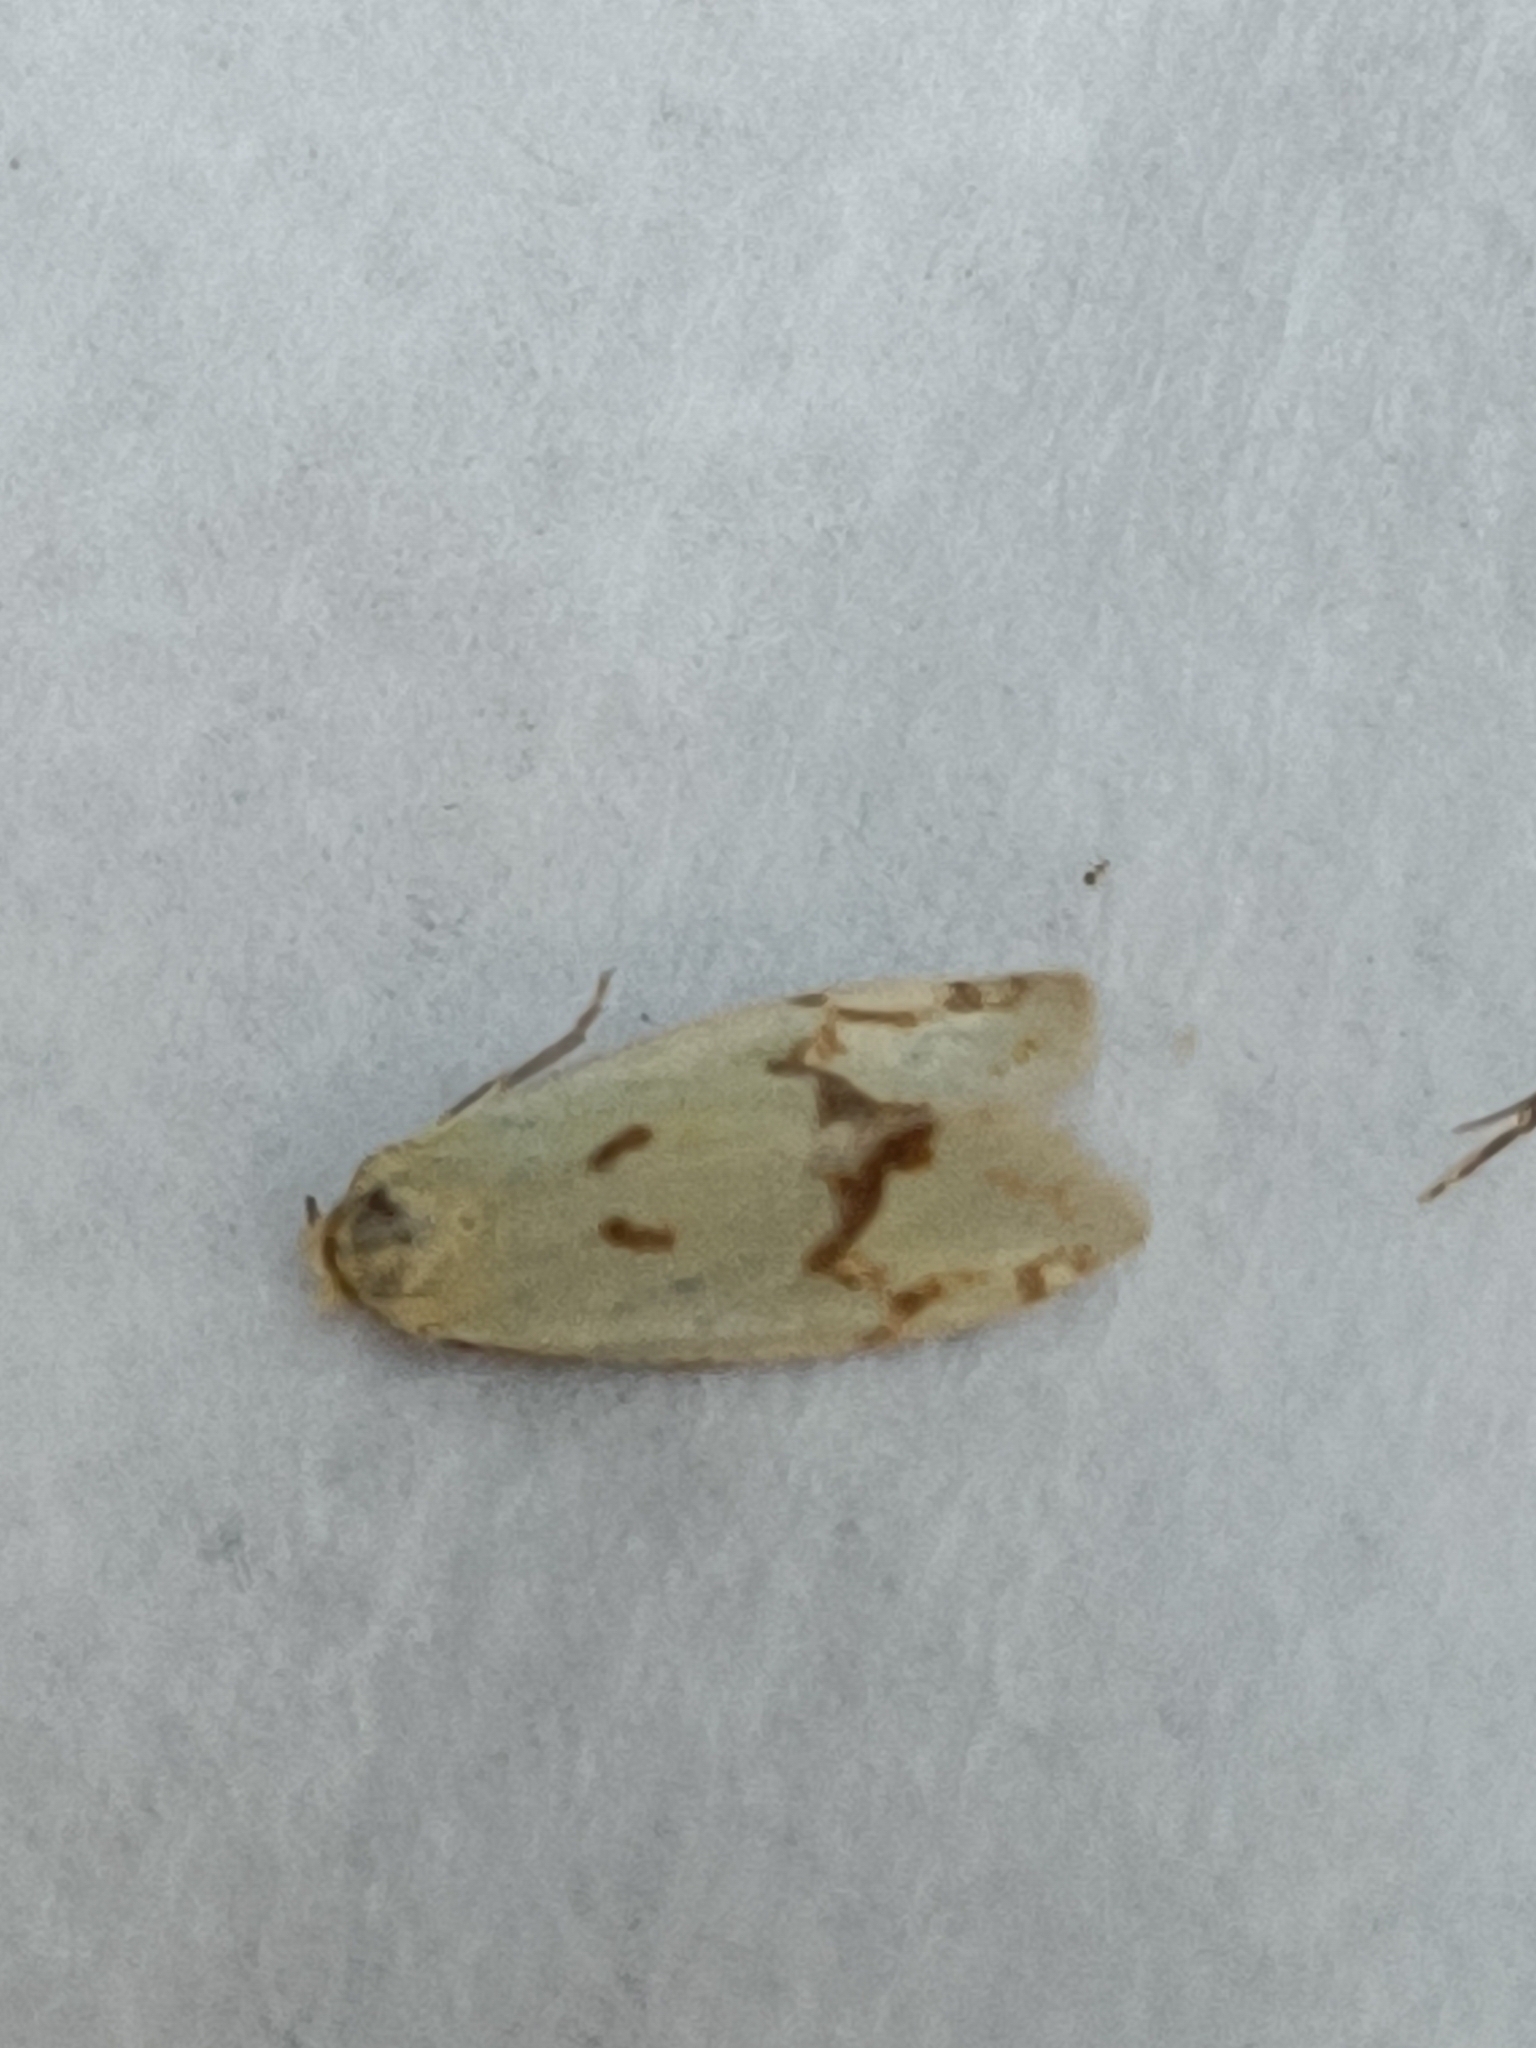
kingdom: Animalia
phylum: Arthropoda
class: Insecta
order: Lepidoptera
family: Tortricidae
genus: Agapeta
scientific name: Agapeta hamana
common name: Common yellow conch
